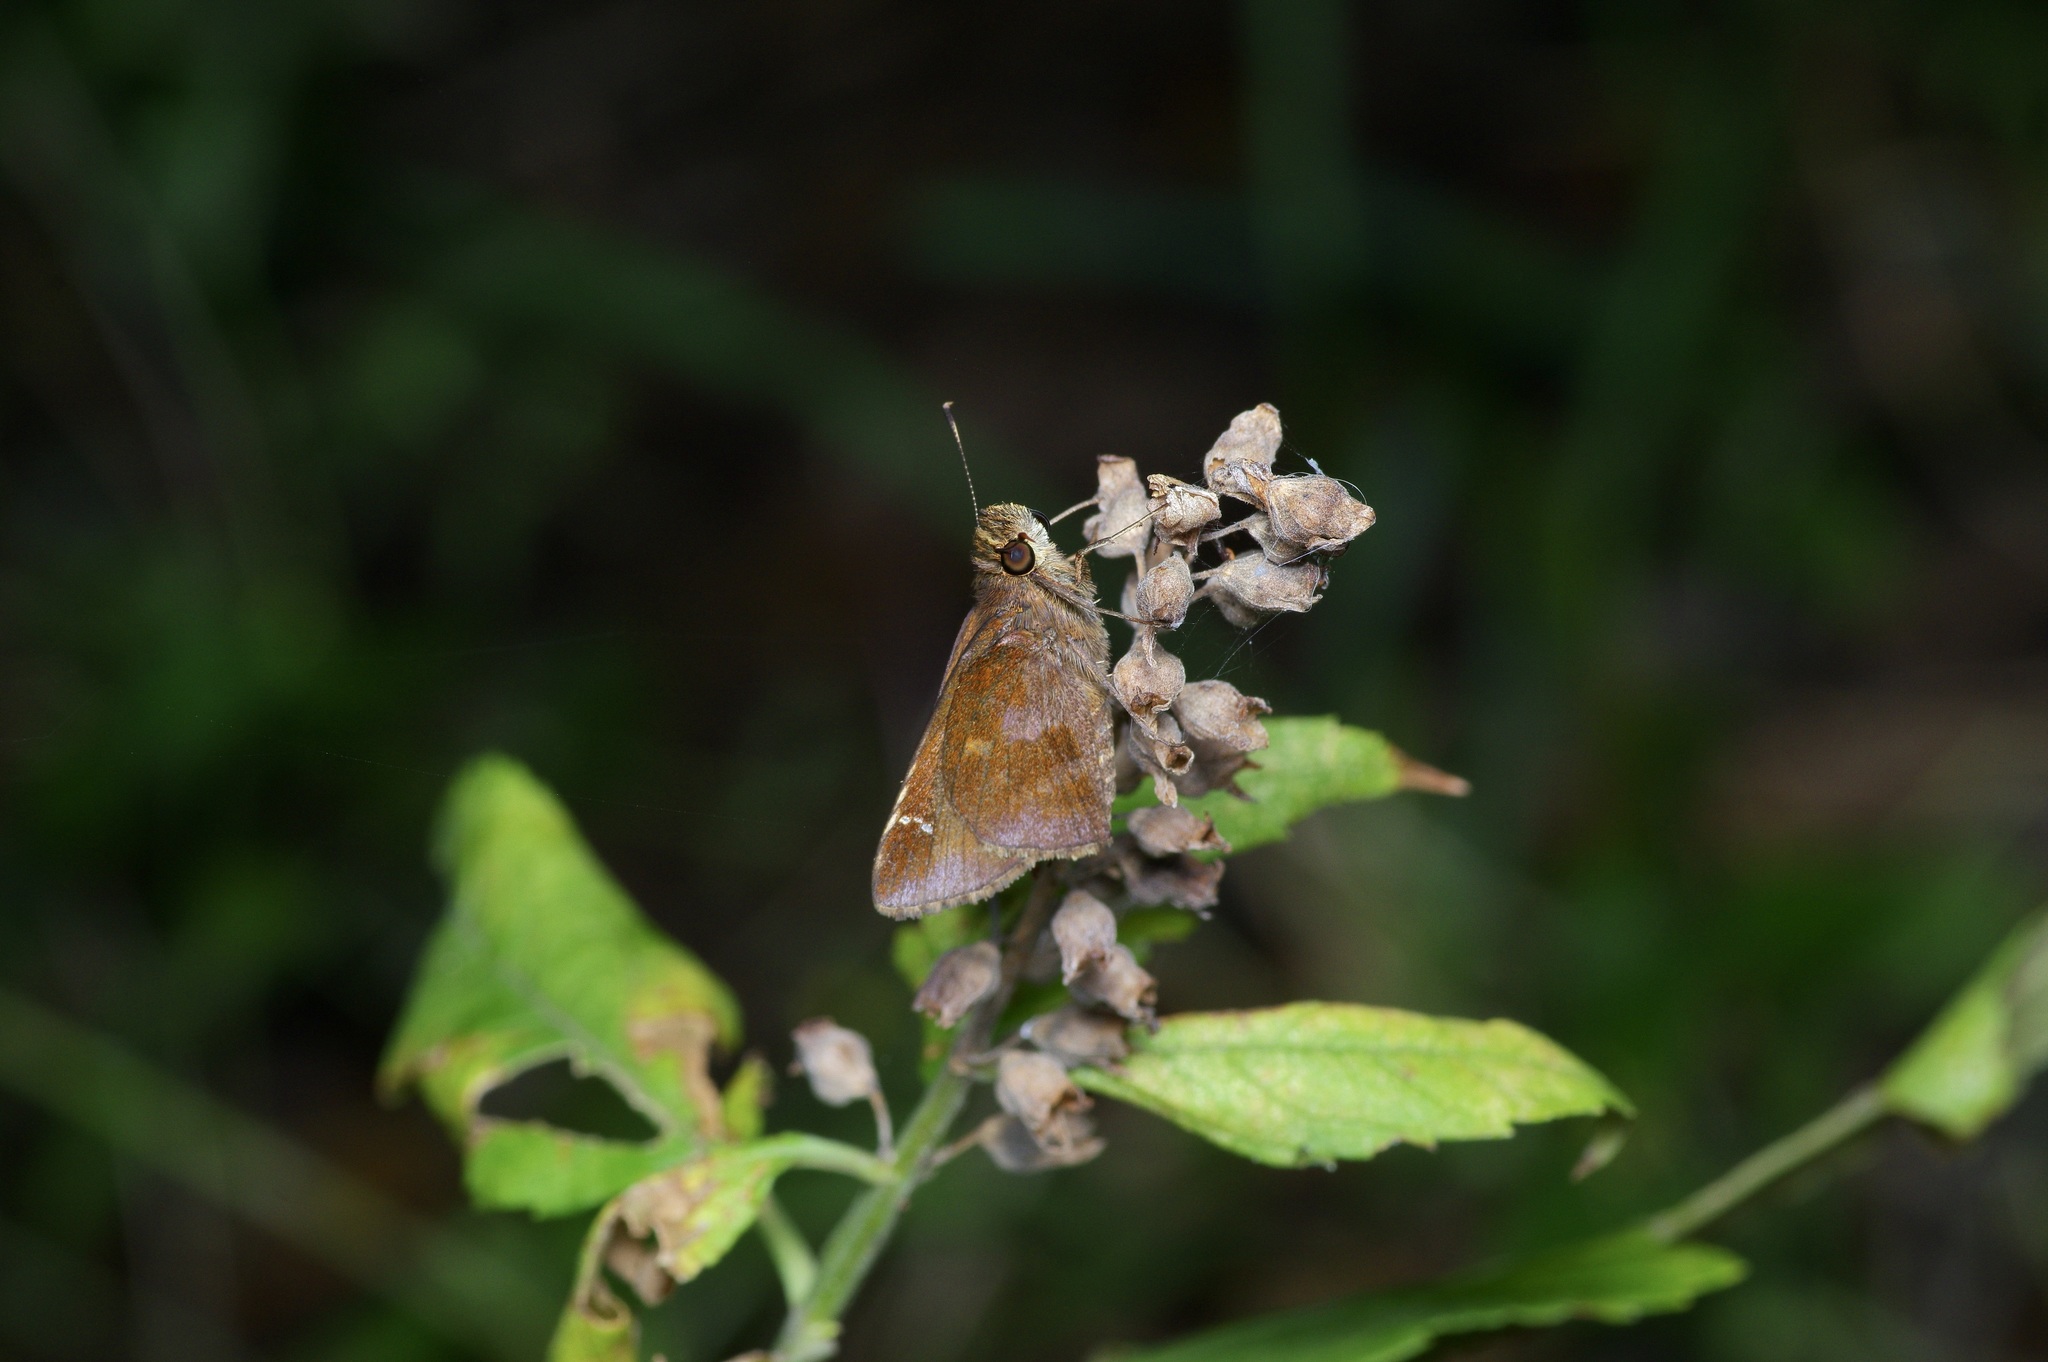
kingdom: Animalia
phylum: Arthropoda
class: Insecta
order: Lepidoptera
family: Hesperiidae
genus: Lerema
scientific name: Lerema accius
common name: Clouded skipper
